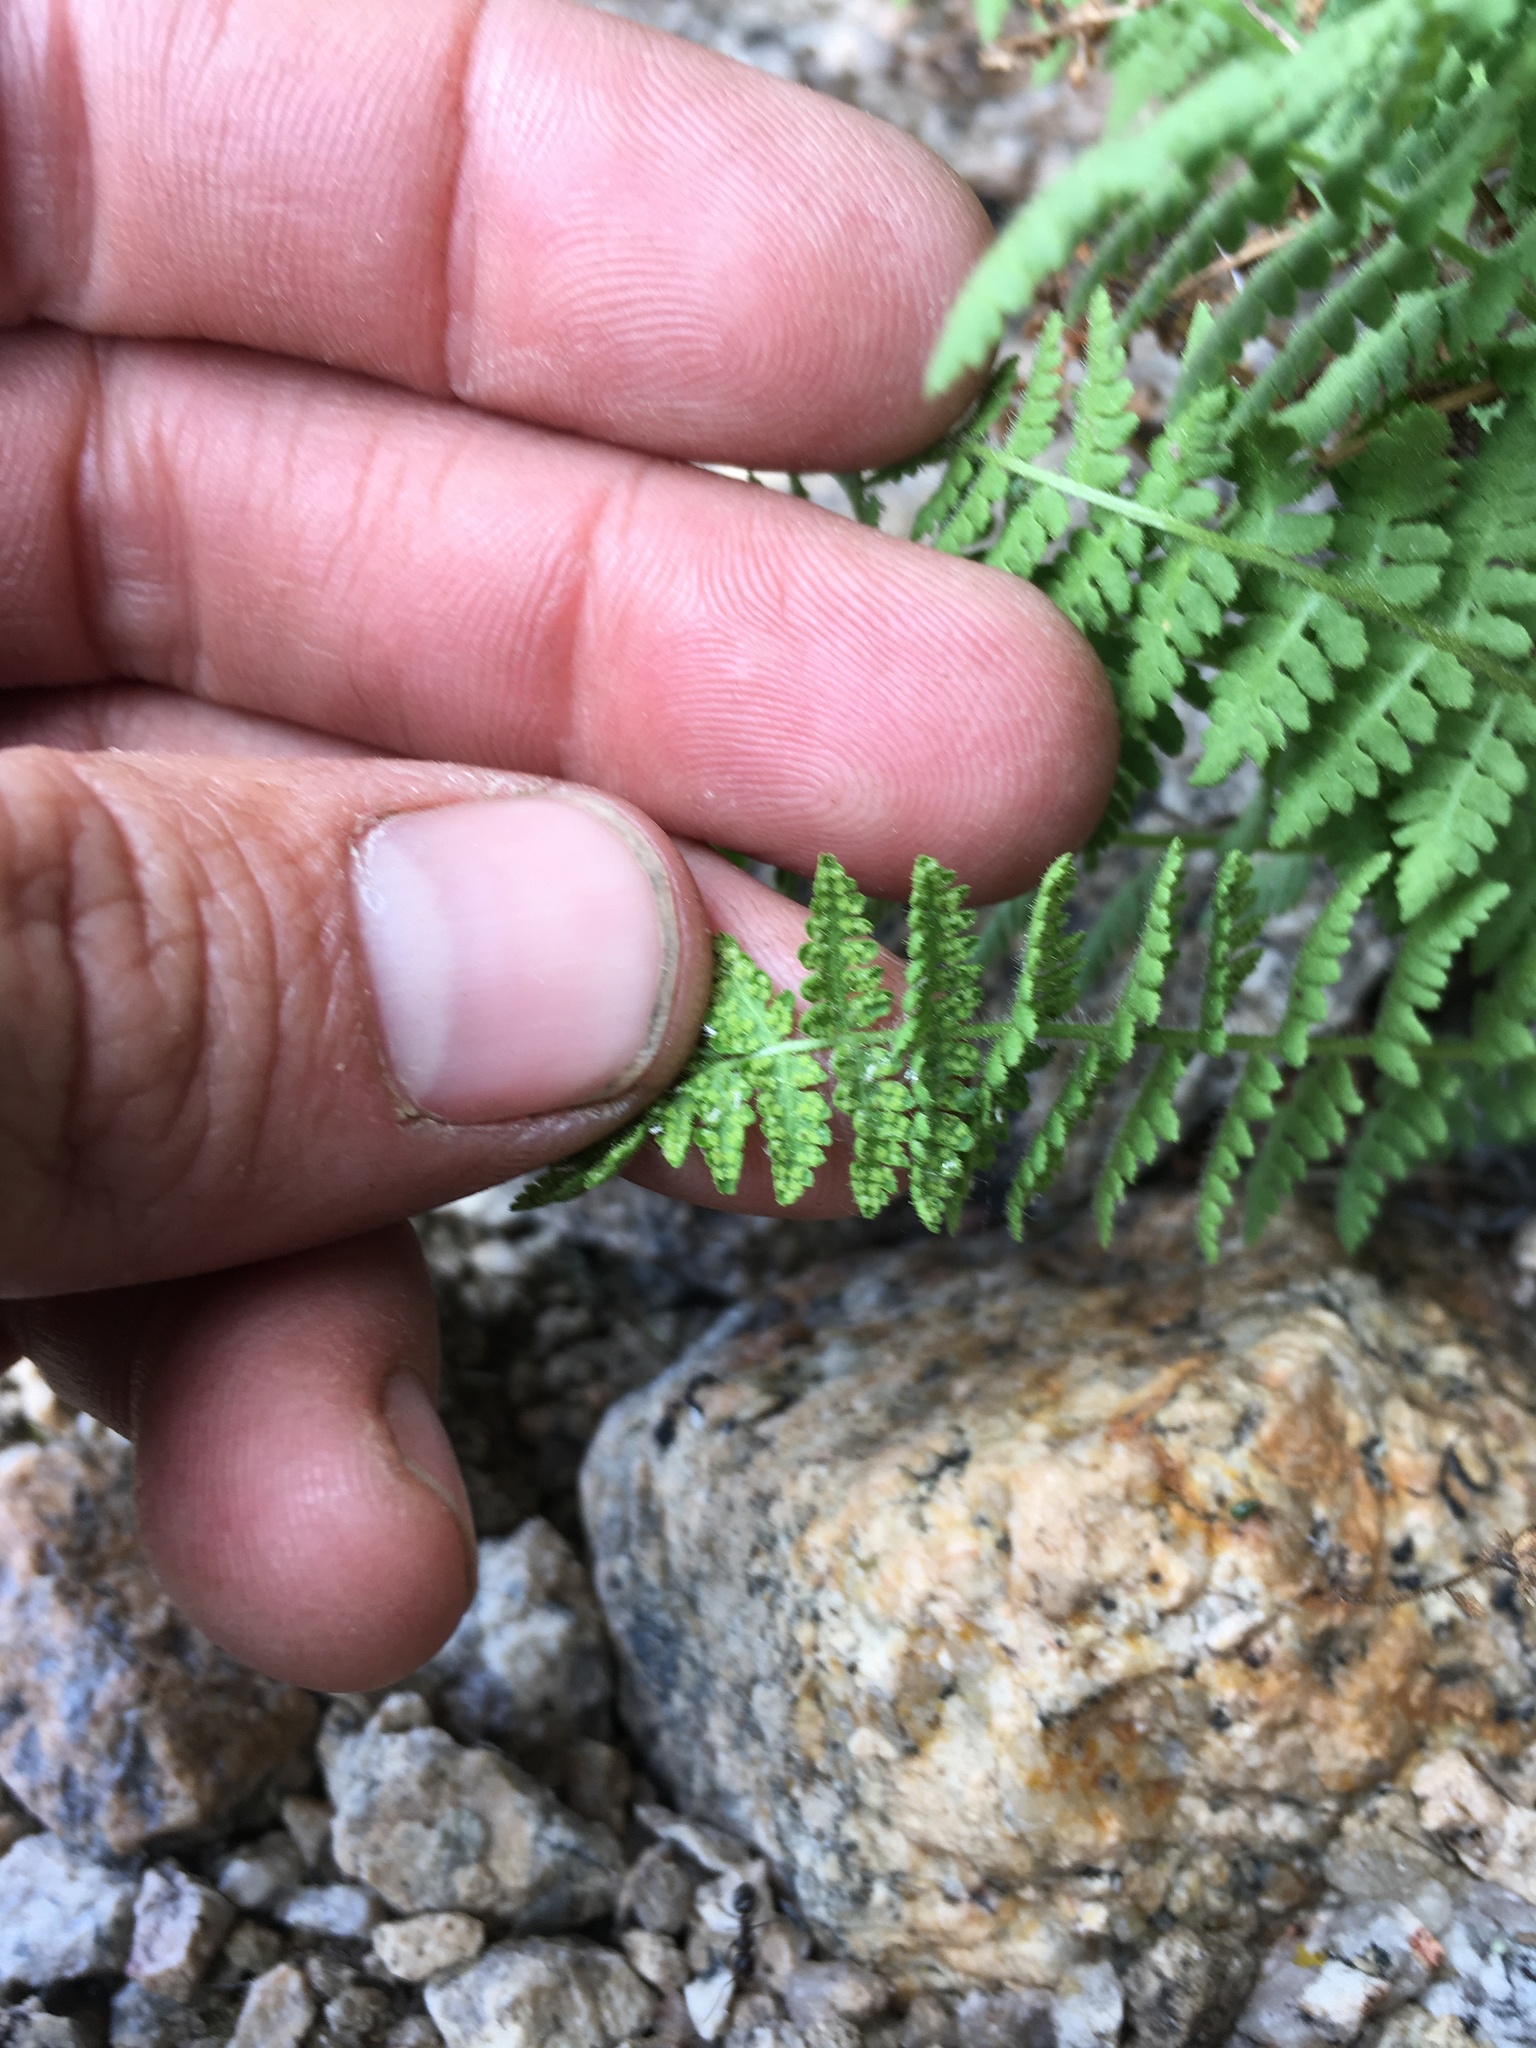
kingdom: Plantae
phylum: Tracheophyta
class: Polypodiopsida
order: Polypodiales
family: Woodsiaceae
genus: Physematium
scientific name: Physematium scopulinum
